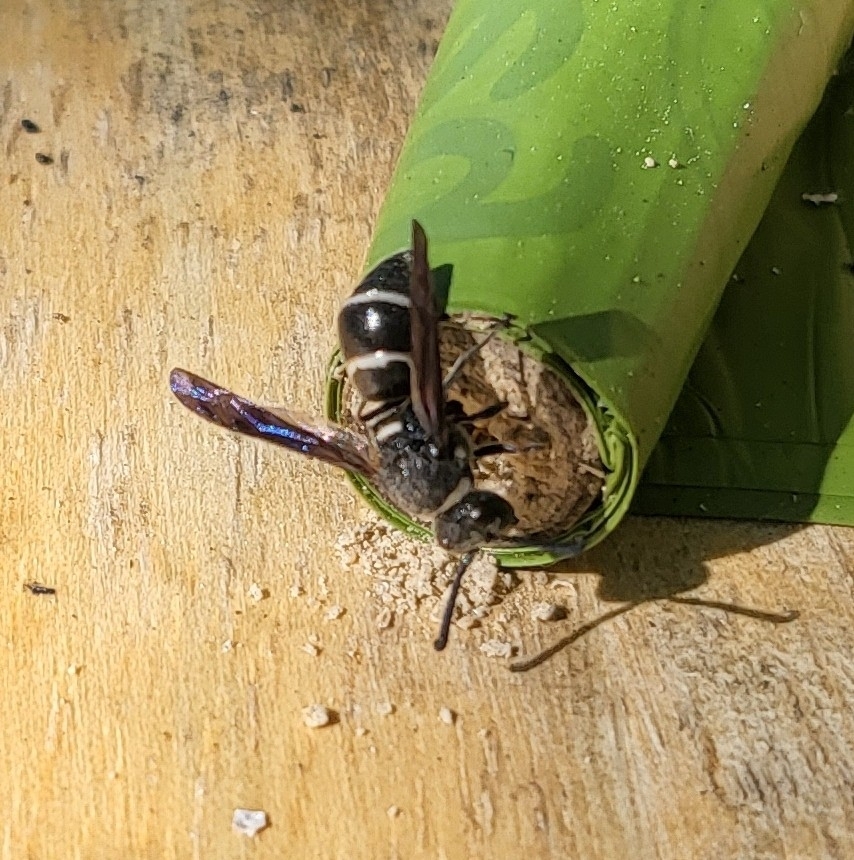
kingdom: Animalia
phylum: Arthropoda
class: Insecta
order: Hymenoptera
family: Eumenidae
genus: Euodynerus
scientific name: Euodynerus megaera
